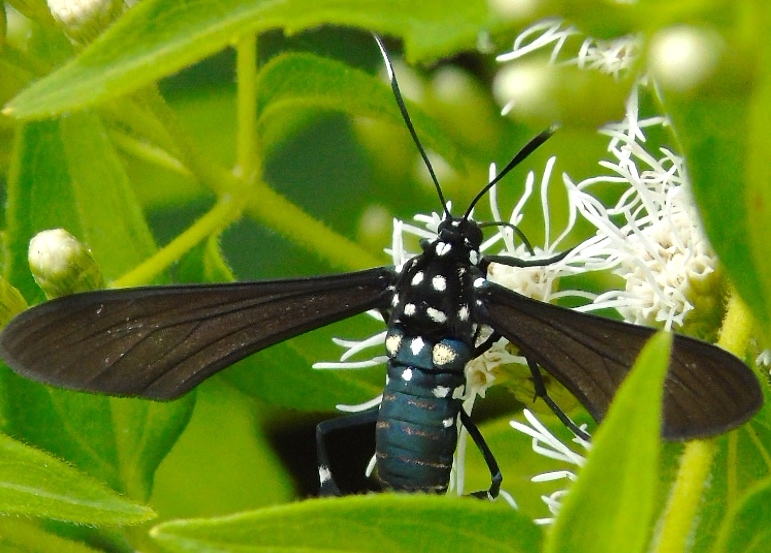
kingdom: Animalia
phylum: Arthropoda
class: Insecta
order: Lepidoptera
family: Erebidae
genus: Horama
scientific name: Horama plumipes
